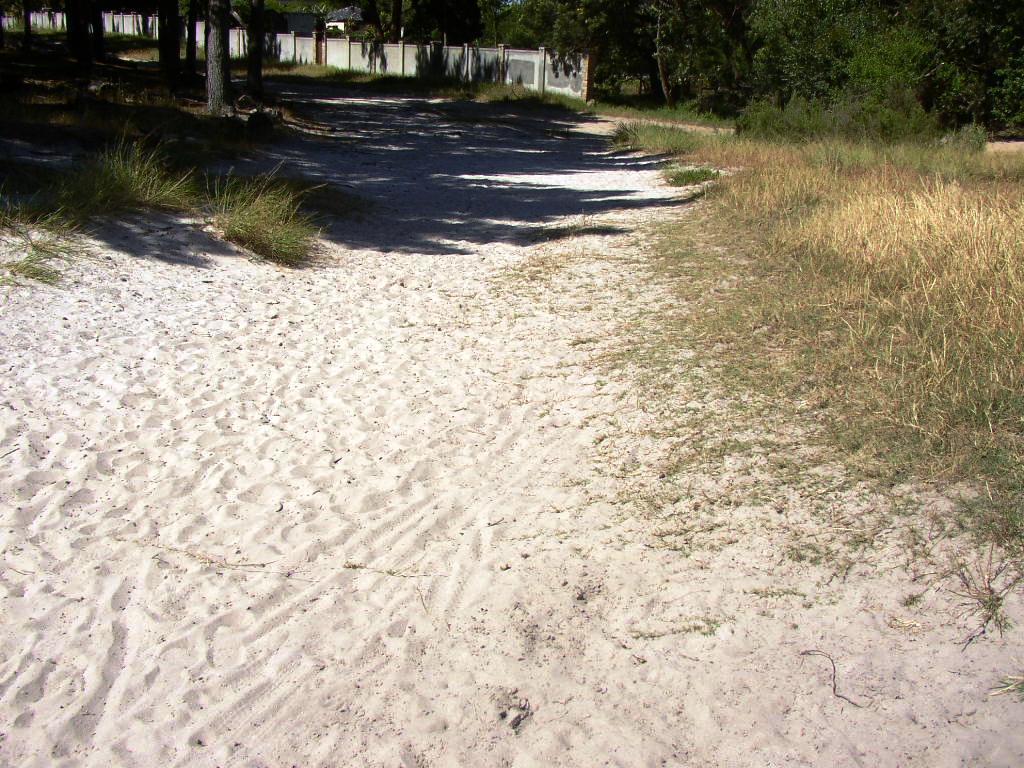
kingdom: Plantae
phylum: Tracheophyta
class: Liliopsida
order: Poales
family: Poaceae
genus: Cynodon
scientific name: Cynodon dactylon
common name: Bermuda grass
